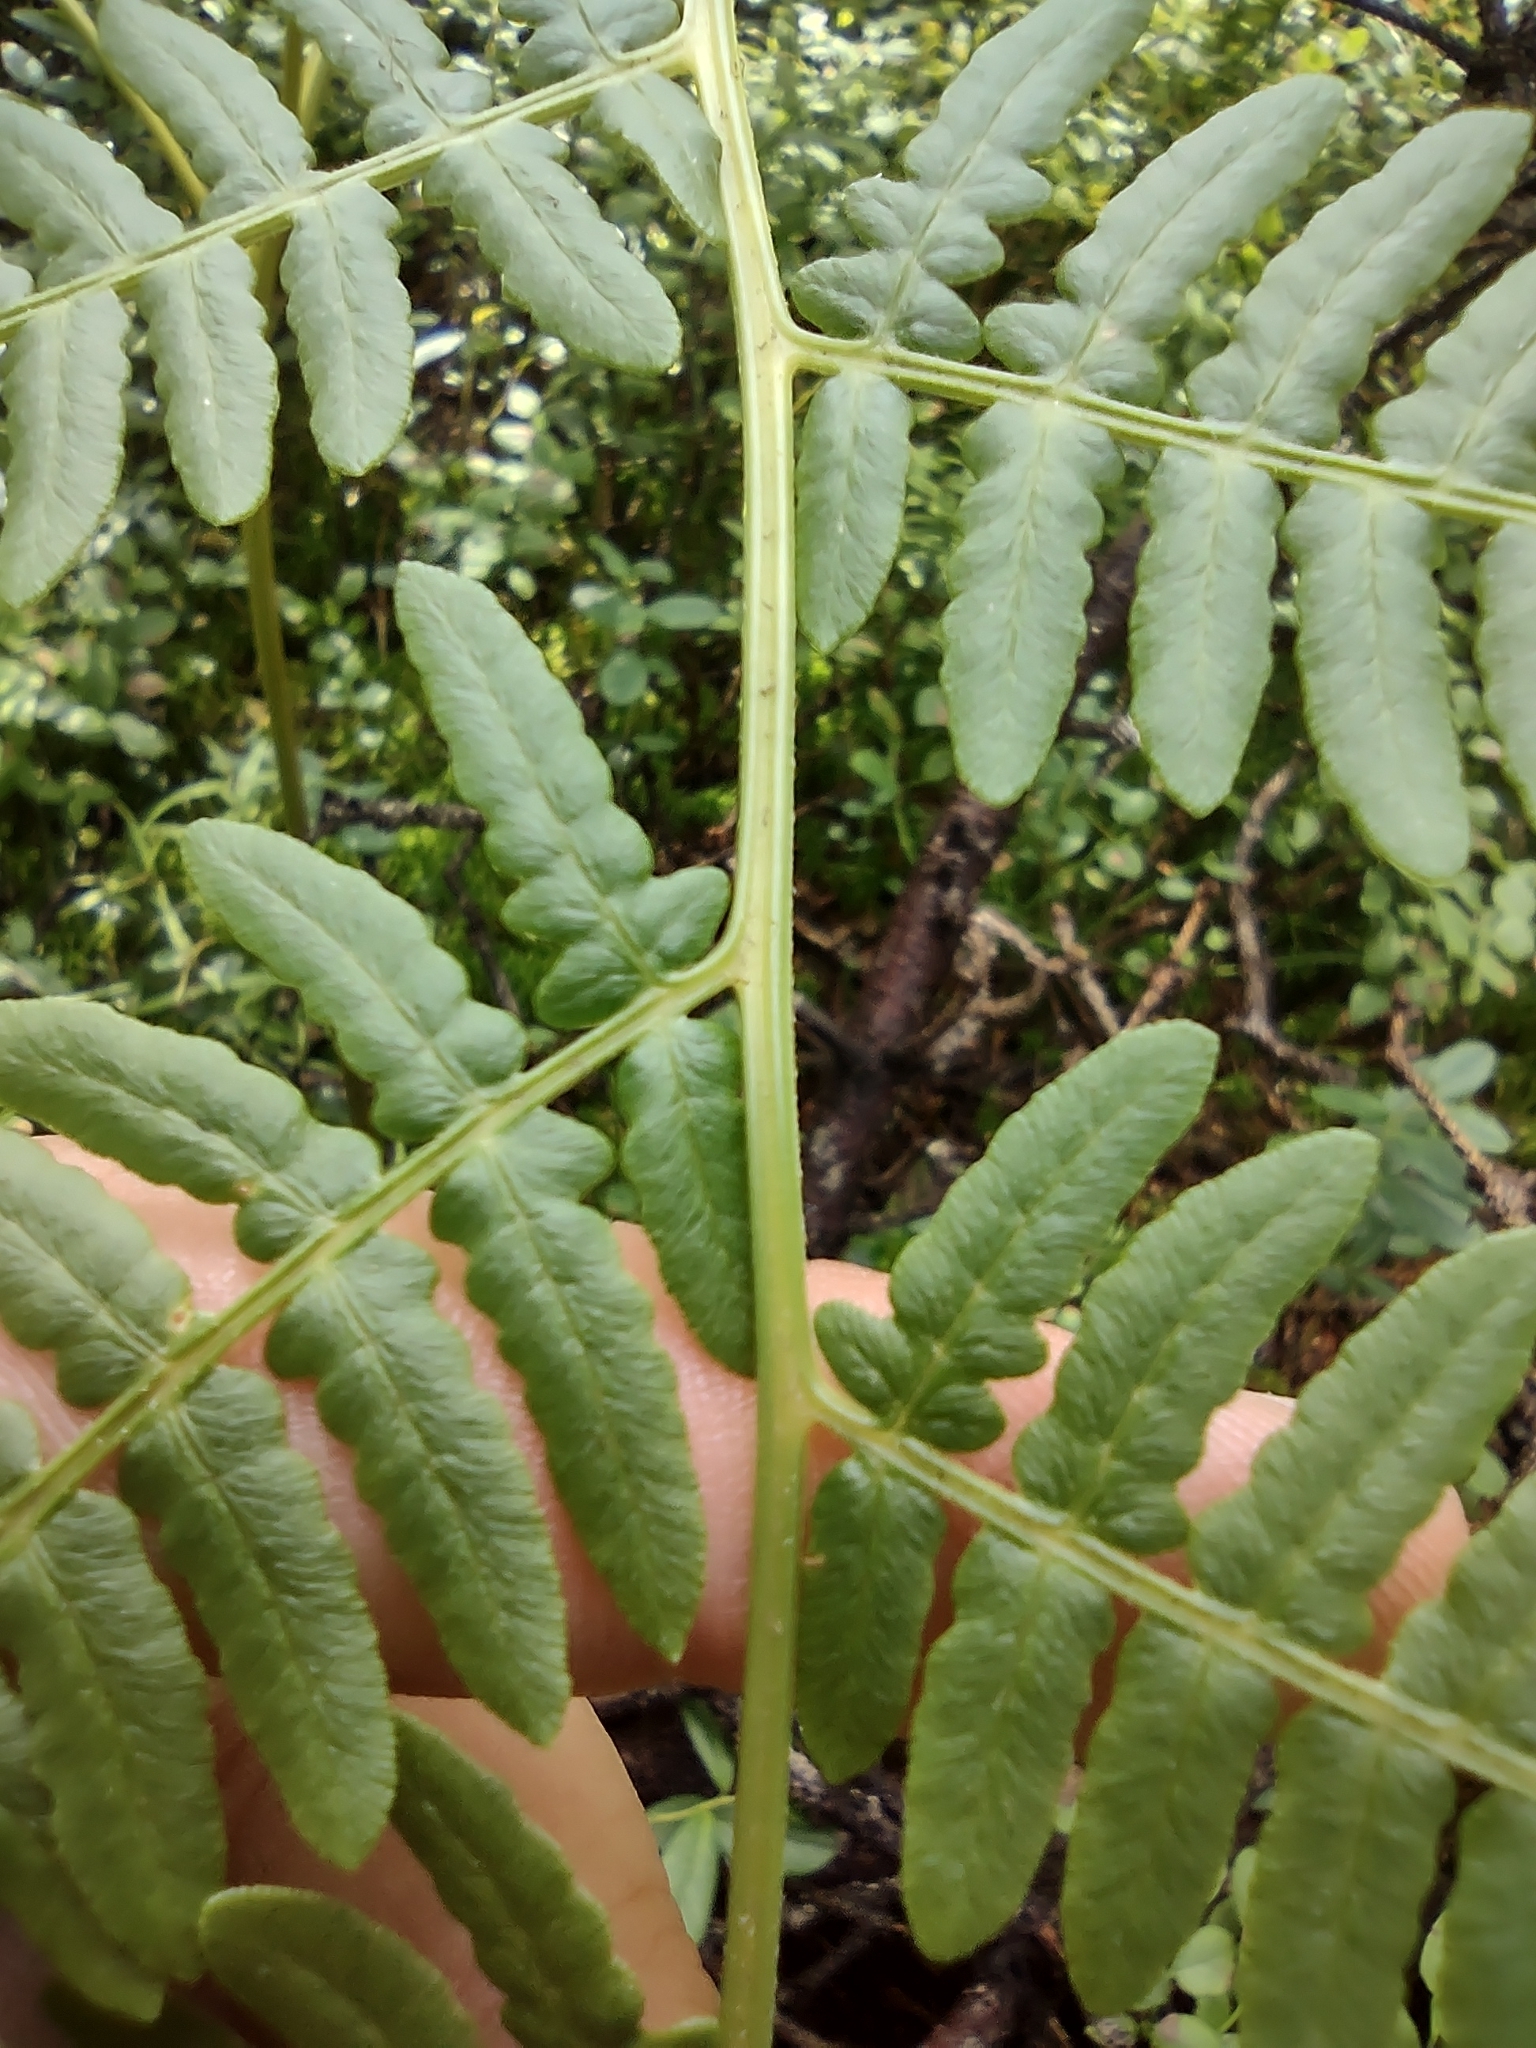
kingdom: Plantae
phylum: Tracheophyta
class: Polypodiopsida
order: Polypodiales
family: Dennstaedtiaceae
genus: Pteridium
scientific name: Pteridium aquilinum
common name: Bracken
